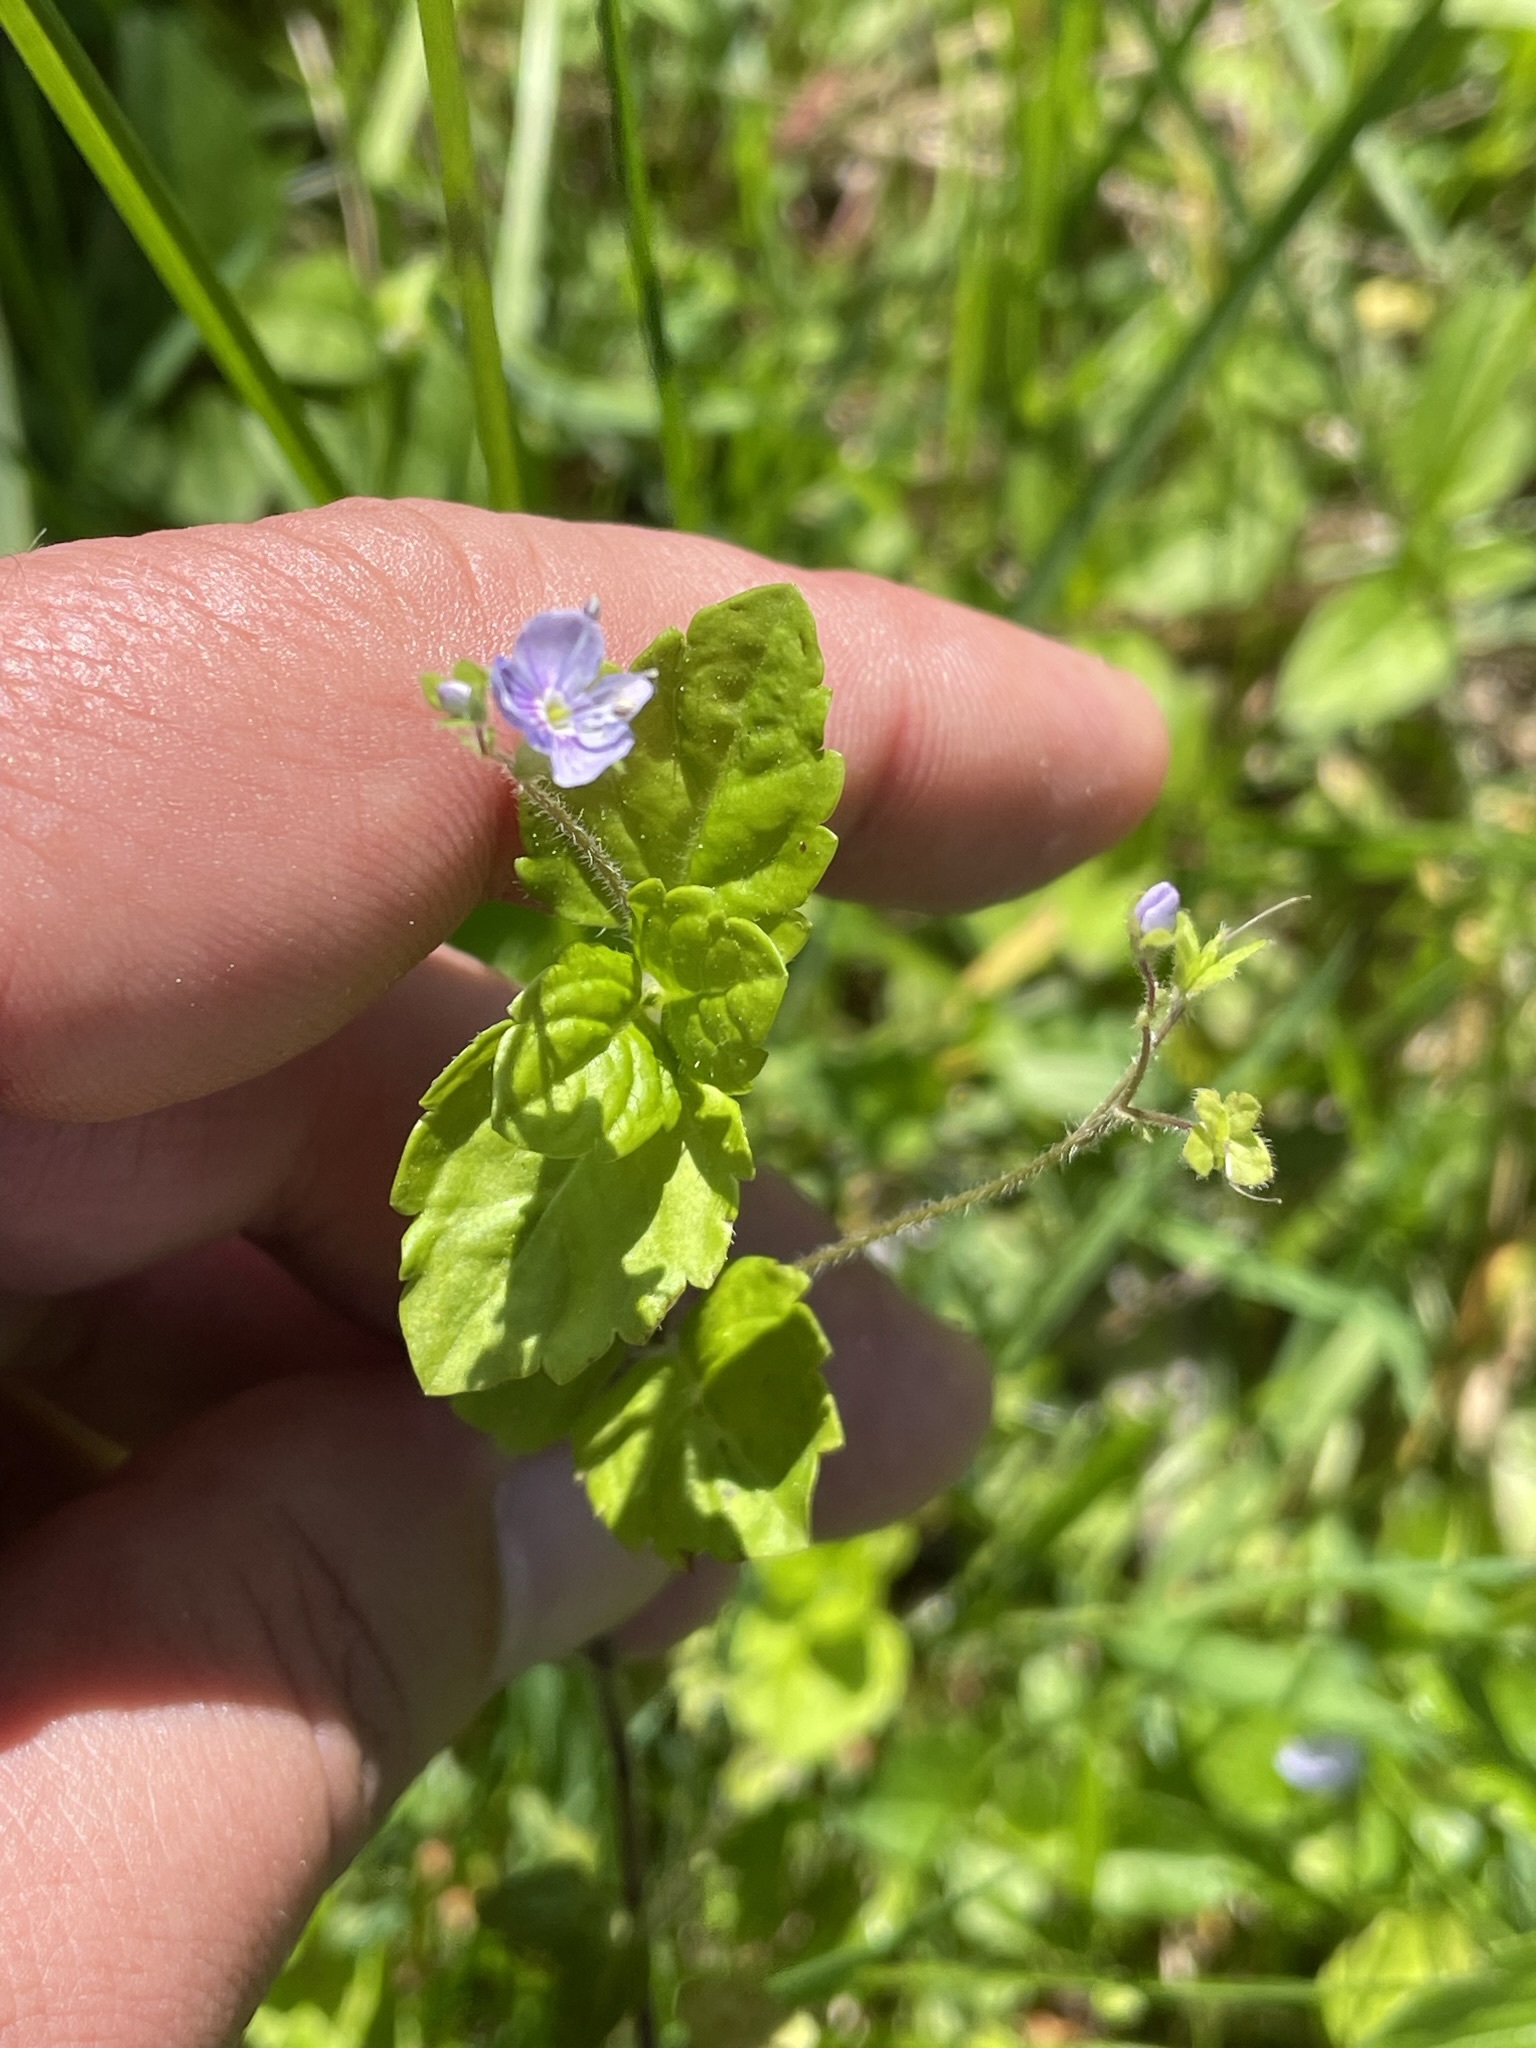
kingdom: Plantae
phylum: Tracheophyta
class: Magnoliopsida
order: Lamiales
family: Plantaginaceae
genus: Veronica
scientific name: Veronica montana
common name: Wood speedwell
